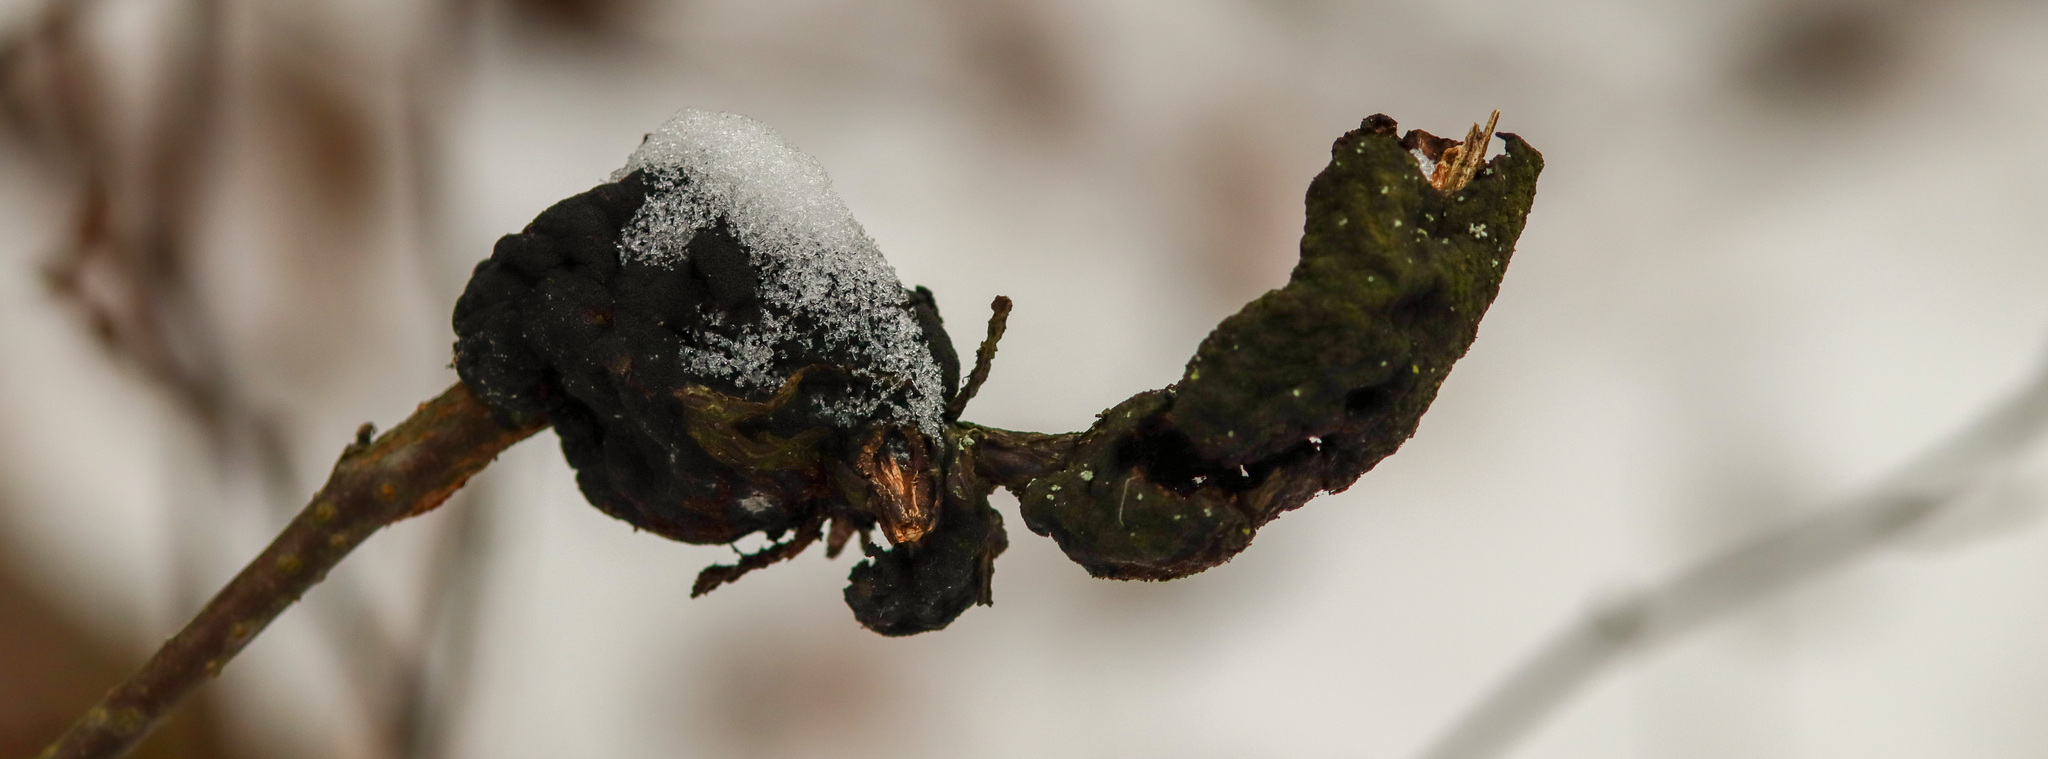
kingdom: Fungi
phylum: Ascomycota
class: Dothideomycetes
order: Venturiales
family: Venturiaceae
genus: Apiosporina
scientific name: Apiosporina morbosa
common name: Black knot
